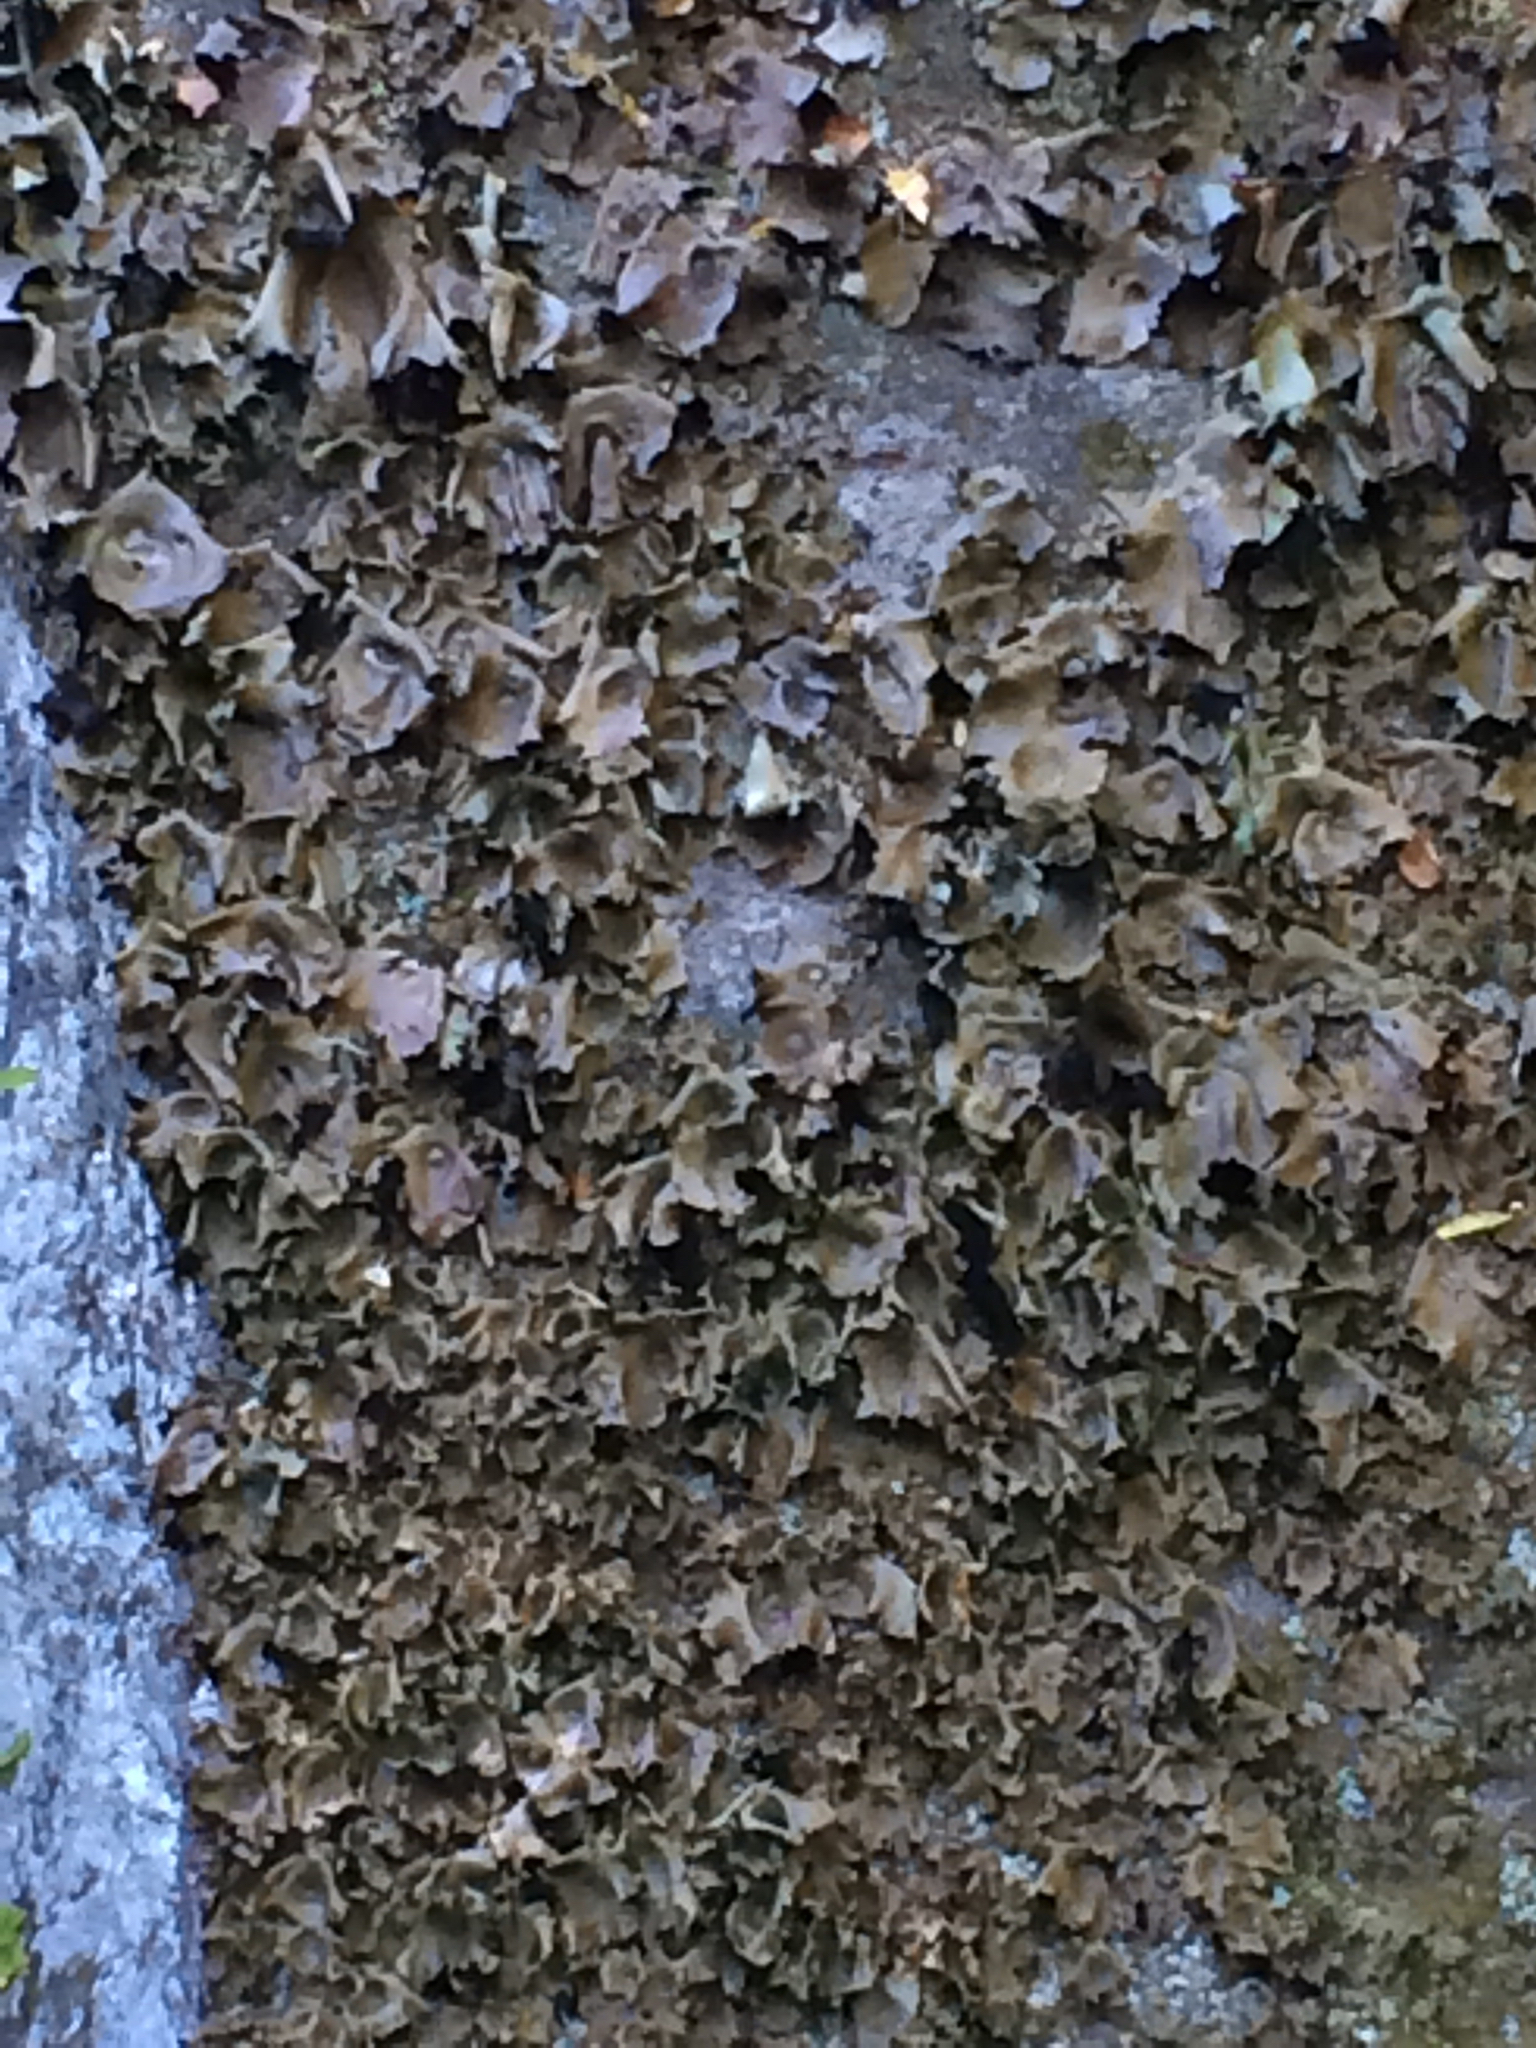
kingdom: Fungi
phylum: Ascomycota
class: Lecanoromycetes
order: Umbilicariales
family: Umbilicariaceae
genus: Umbilicaria
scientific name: Umbilicaria mammulata
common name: Smooth rock tripe
